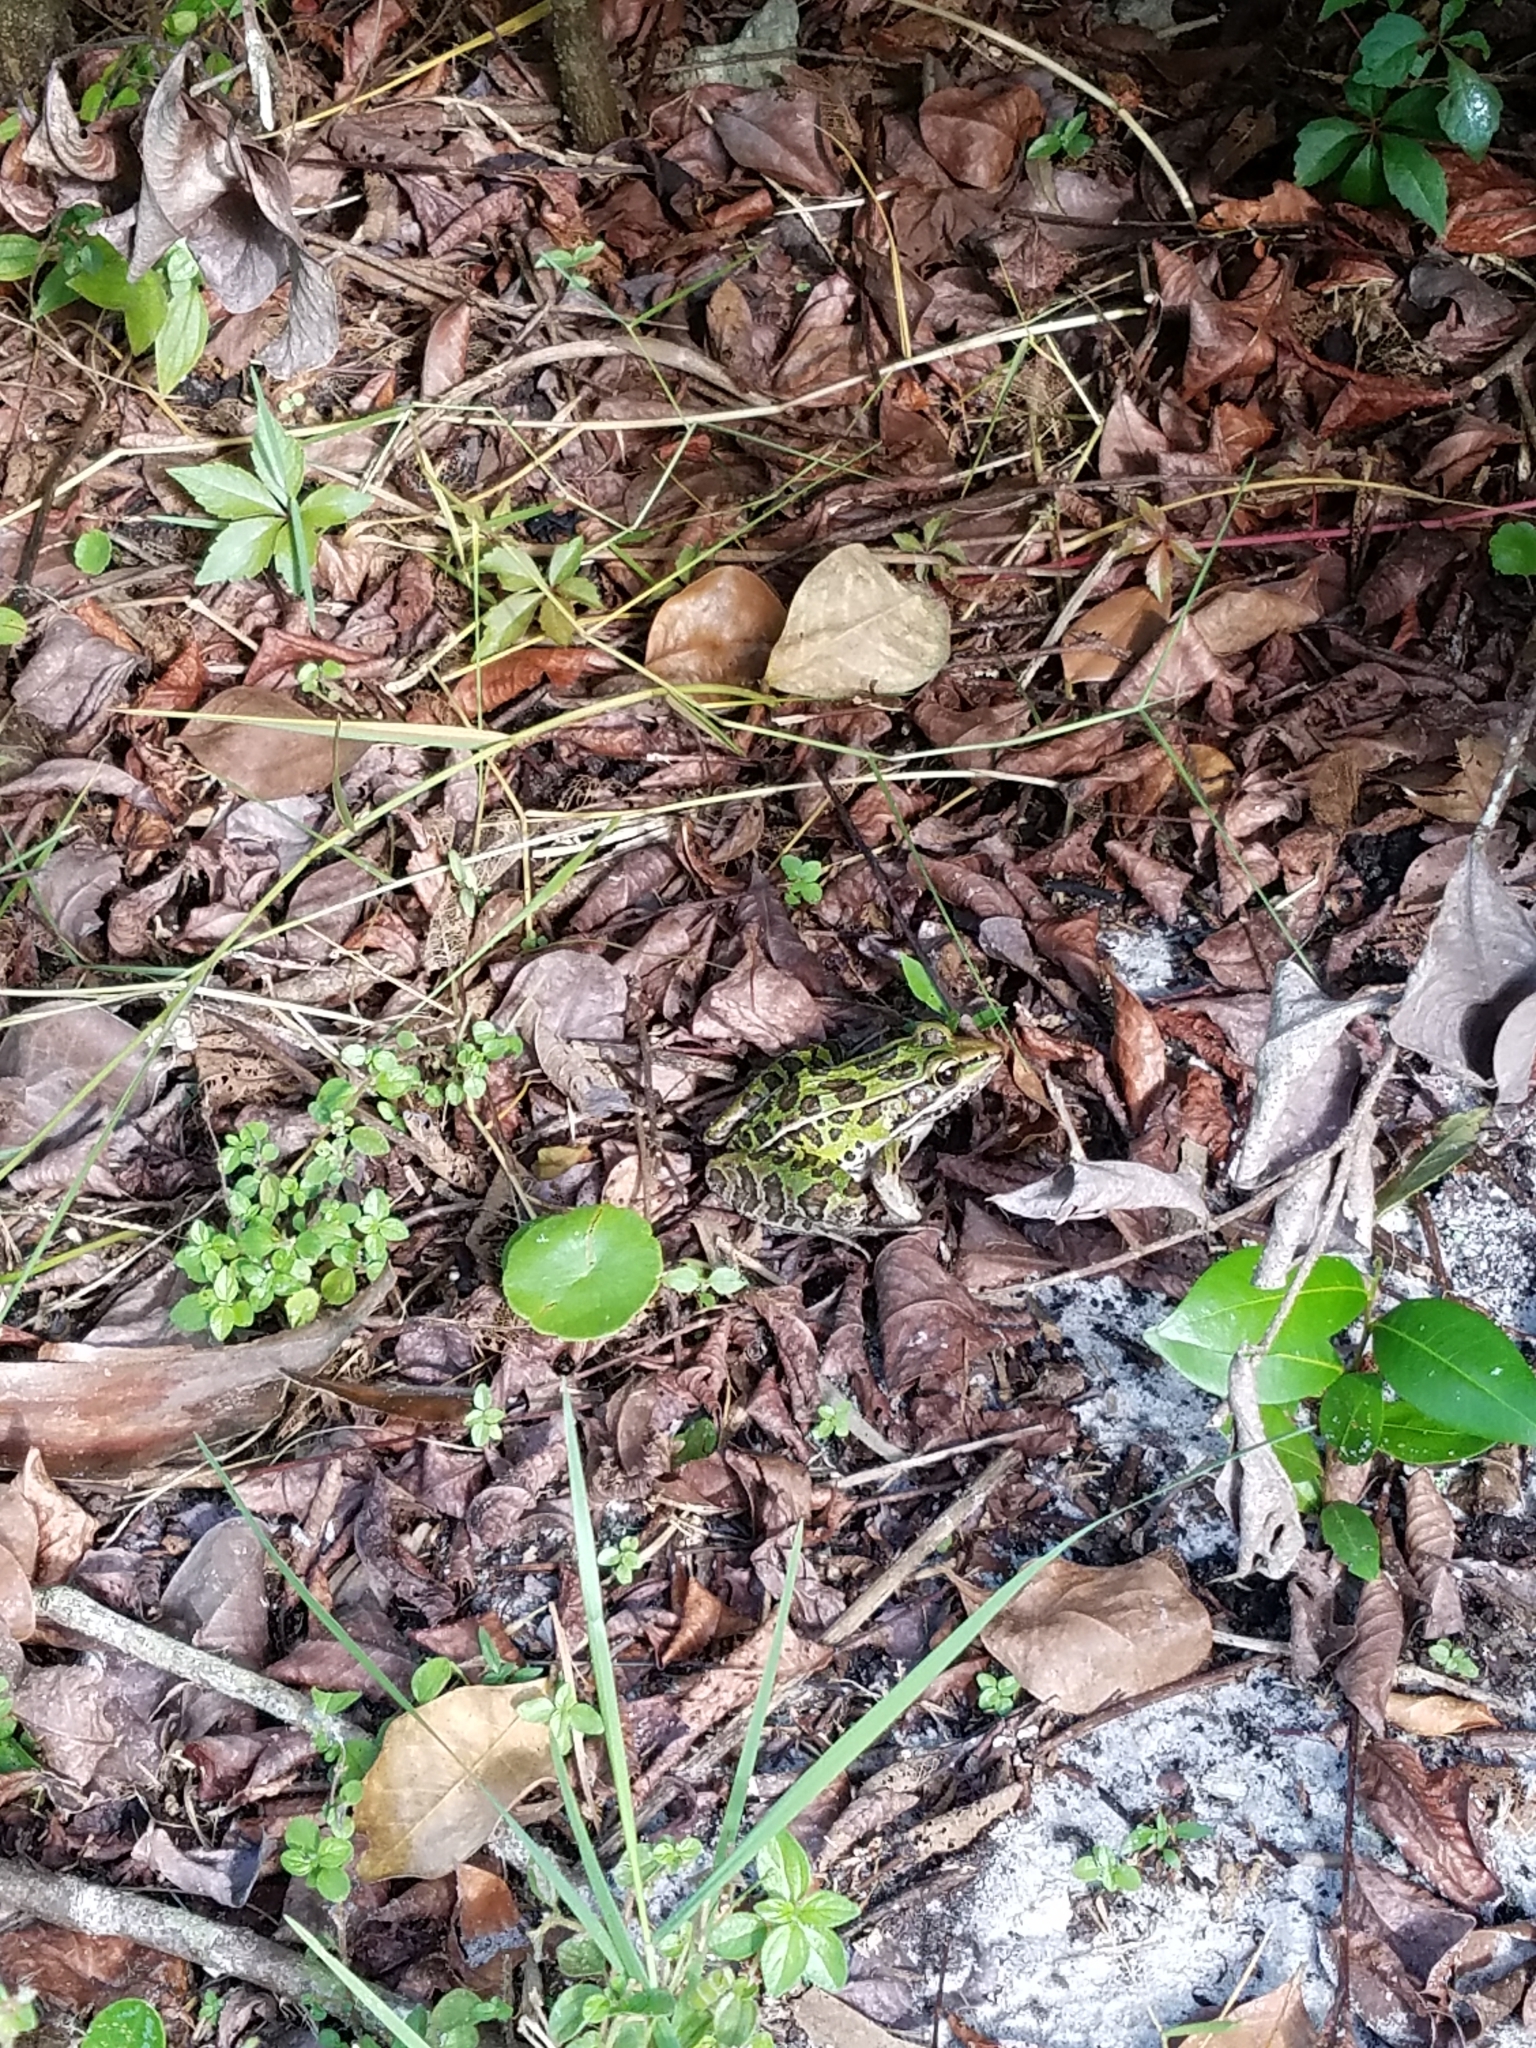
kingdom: Animalia
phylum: Chordata
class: Amphibia
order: Anura
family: Ranidae
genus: Lithobates
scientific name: Lithobates sphenocephalus
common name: Southern leopard frog
